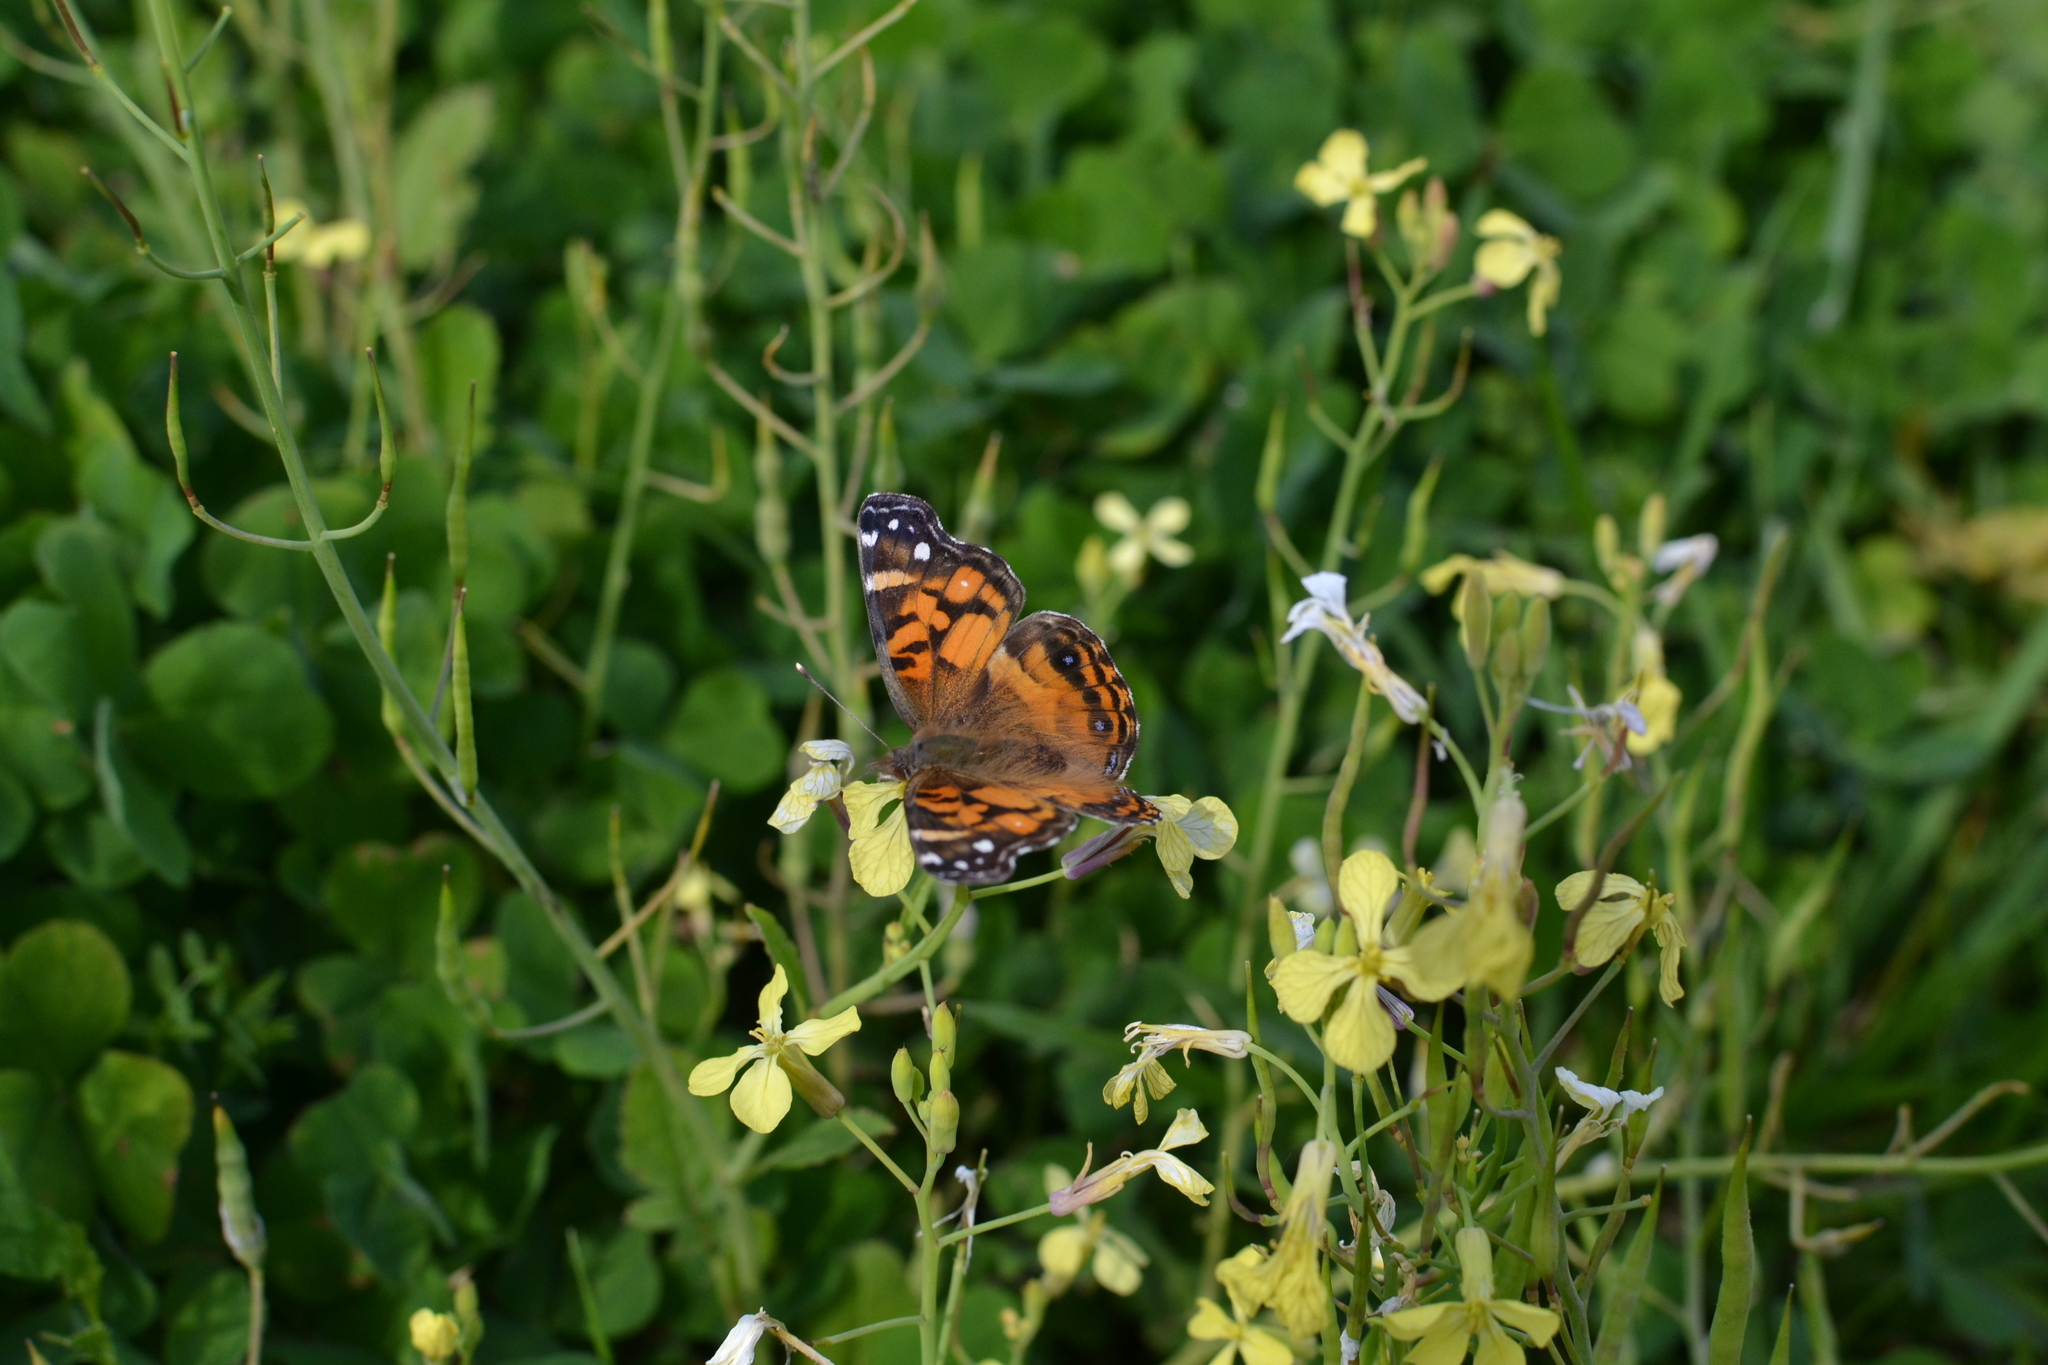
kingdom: Animalia
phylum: Arthropoda
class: Insecta
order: Lepidoptera
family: Nymphalidae
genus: Vanessa
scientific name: Vanessa virginiensis
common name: American lady
